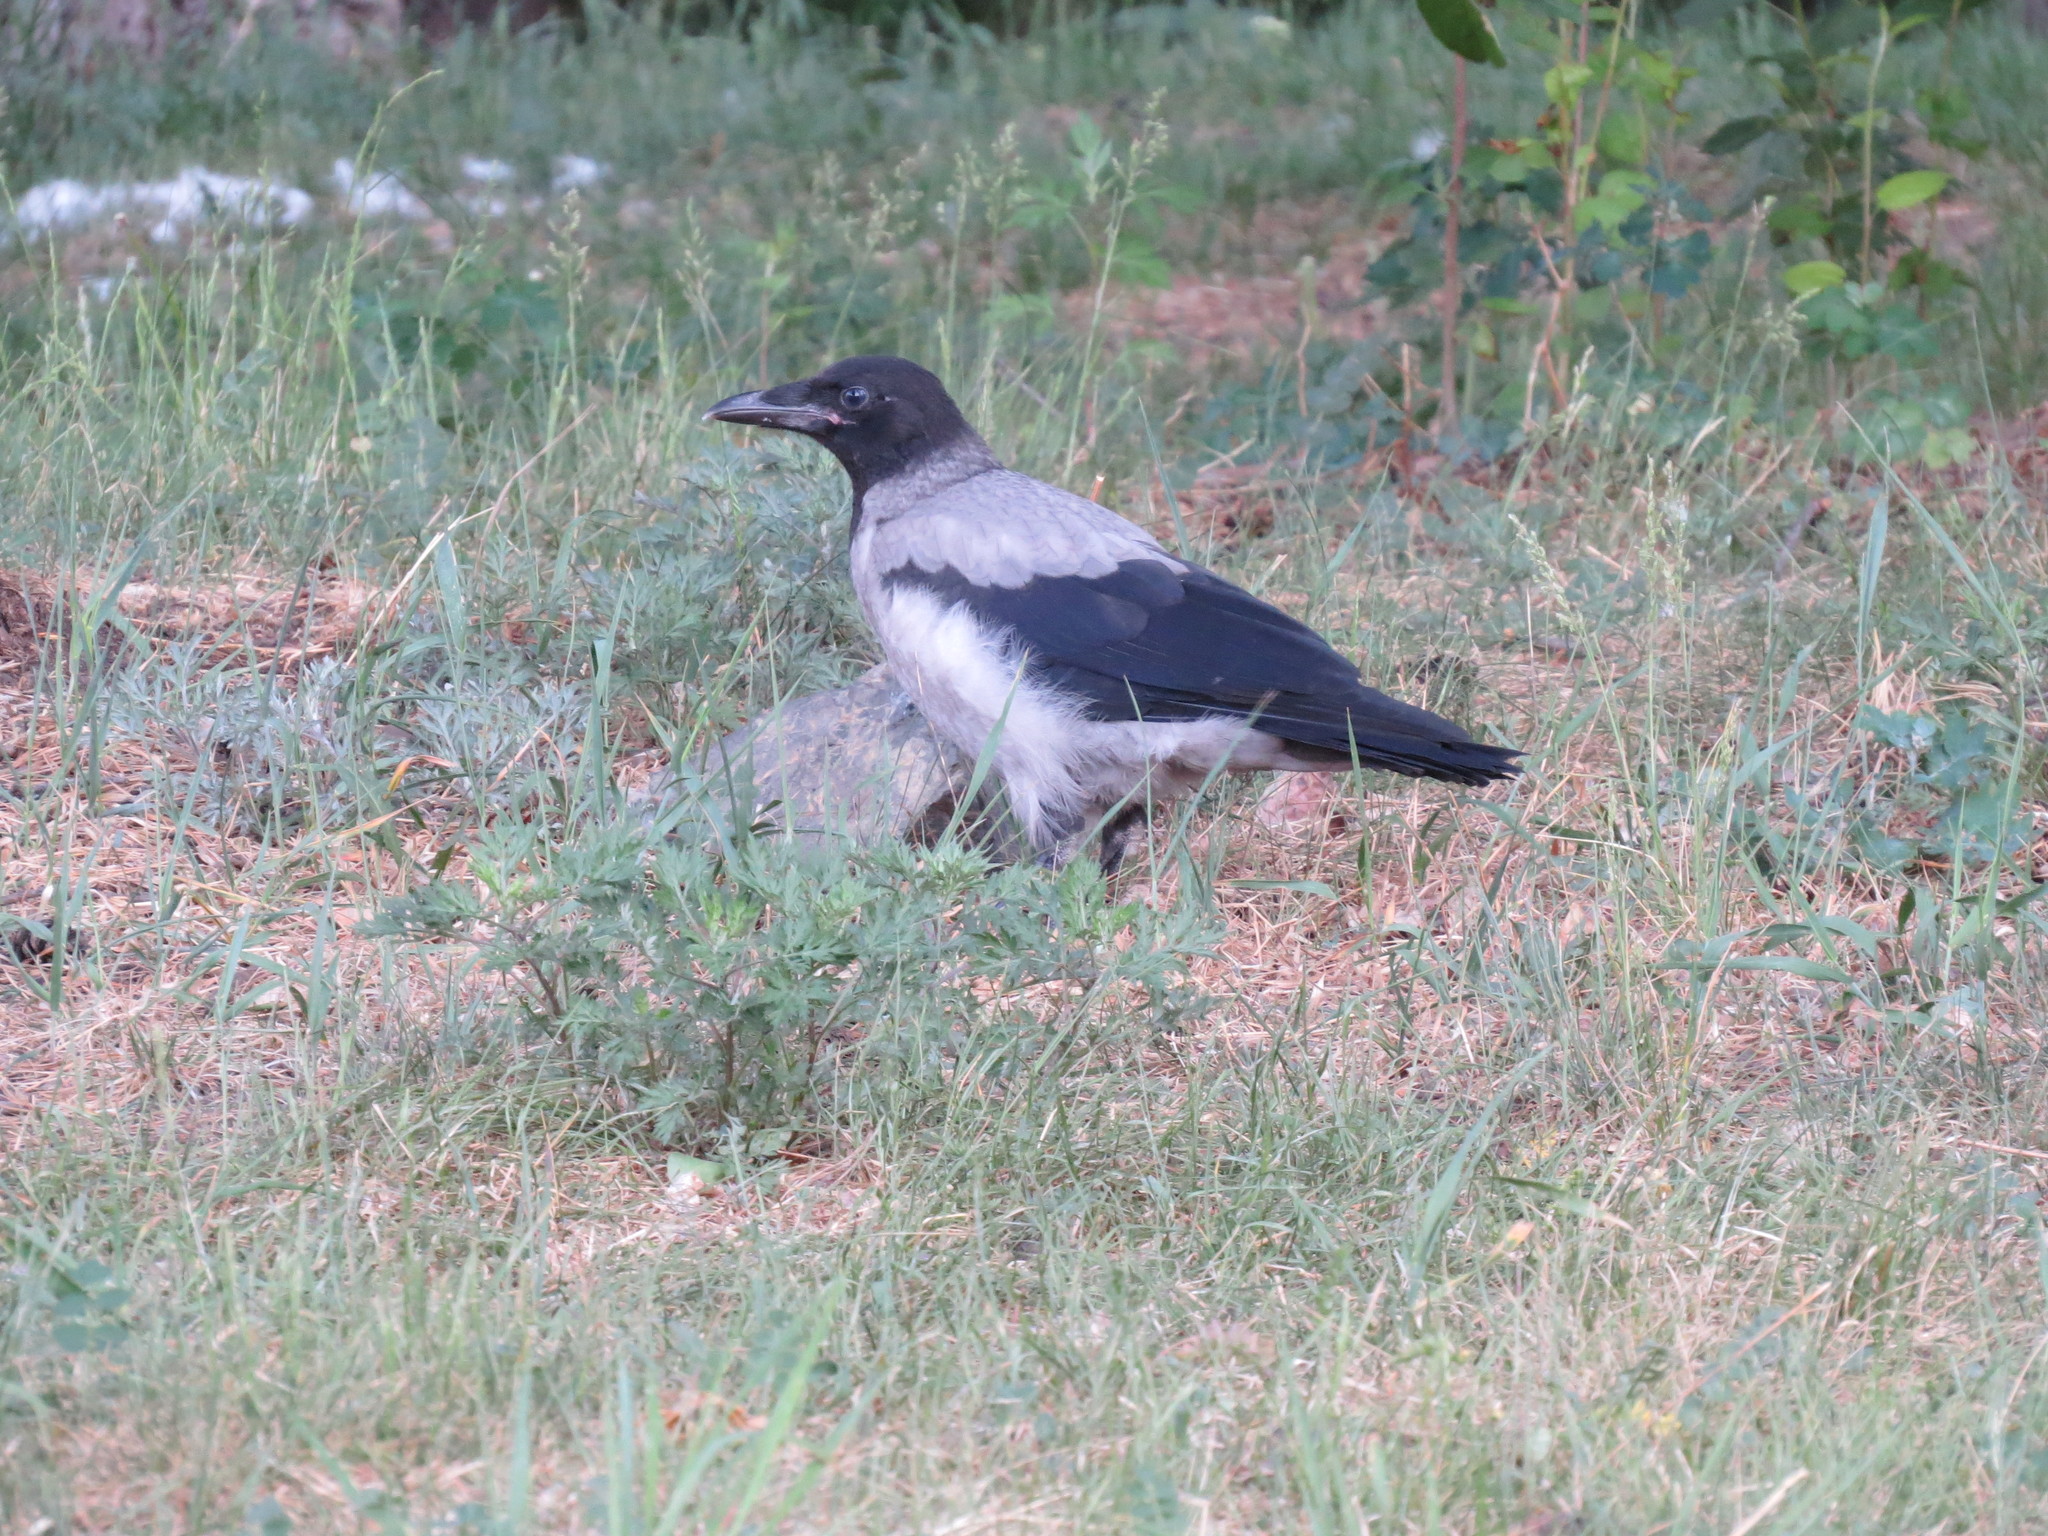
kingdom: Animalia
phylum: Chordata
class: Aves
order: Passeriformes
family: Corvidae
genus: Corvus
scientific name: Corvus cornix
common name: Hooded crow
